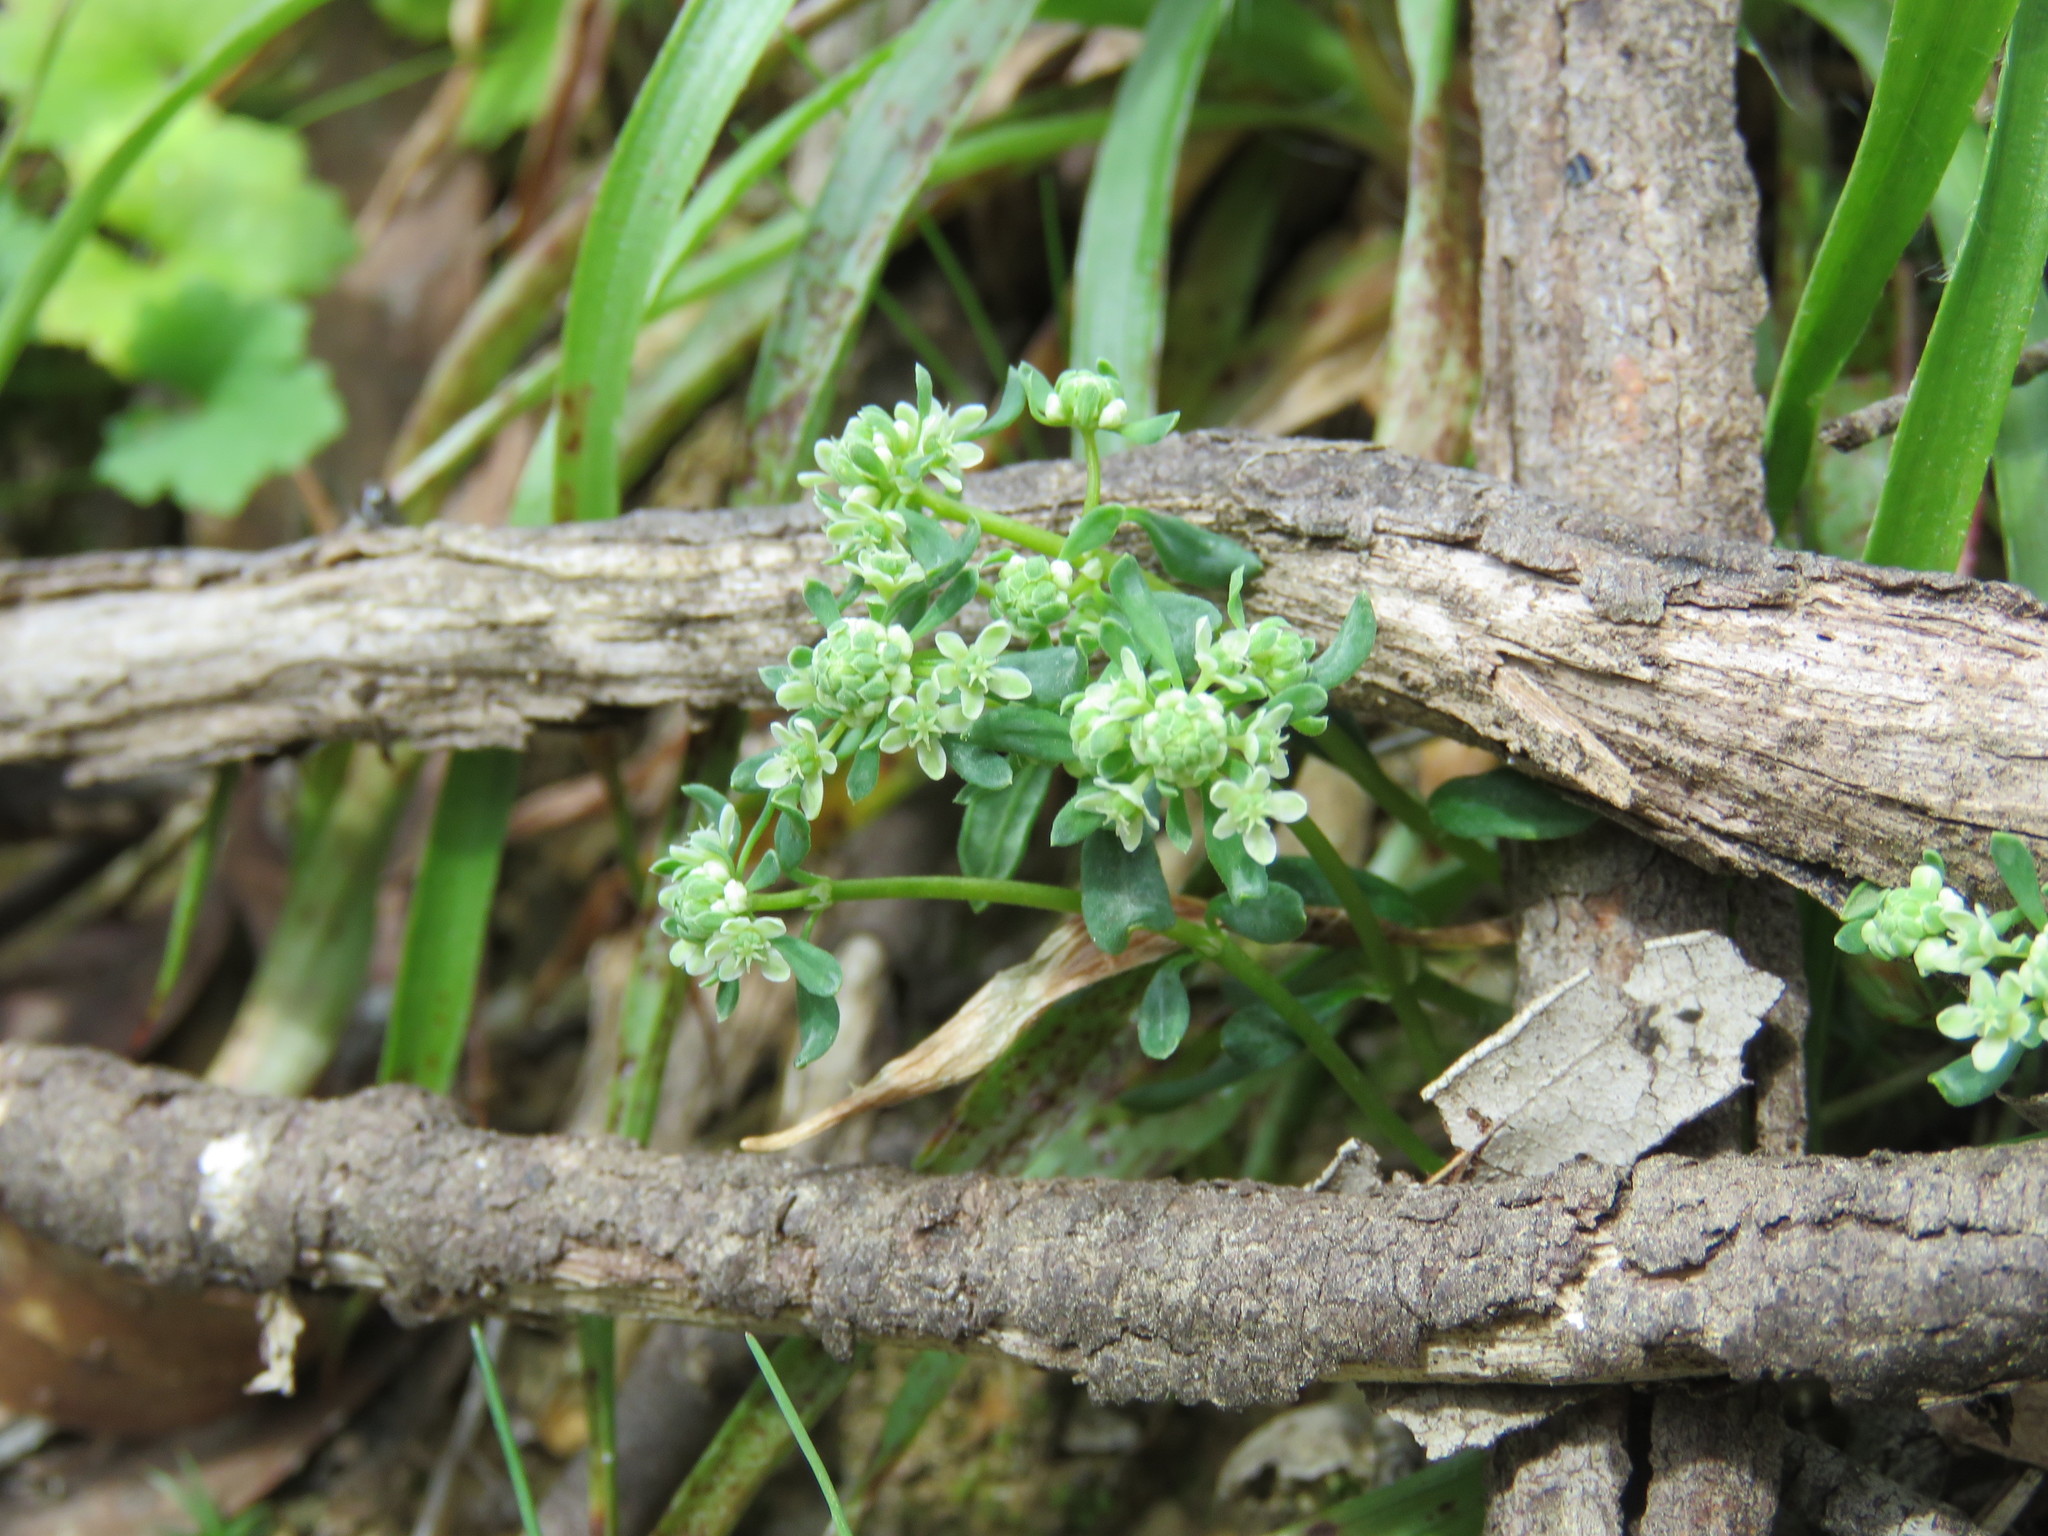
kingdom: Plantae
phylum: Tracheophyta
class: Magnoliopsida
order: Malpighiales
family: Phyllanthaceae
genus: Poranthera
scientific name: Poranthera microphylla
